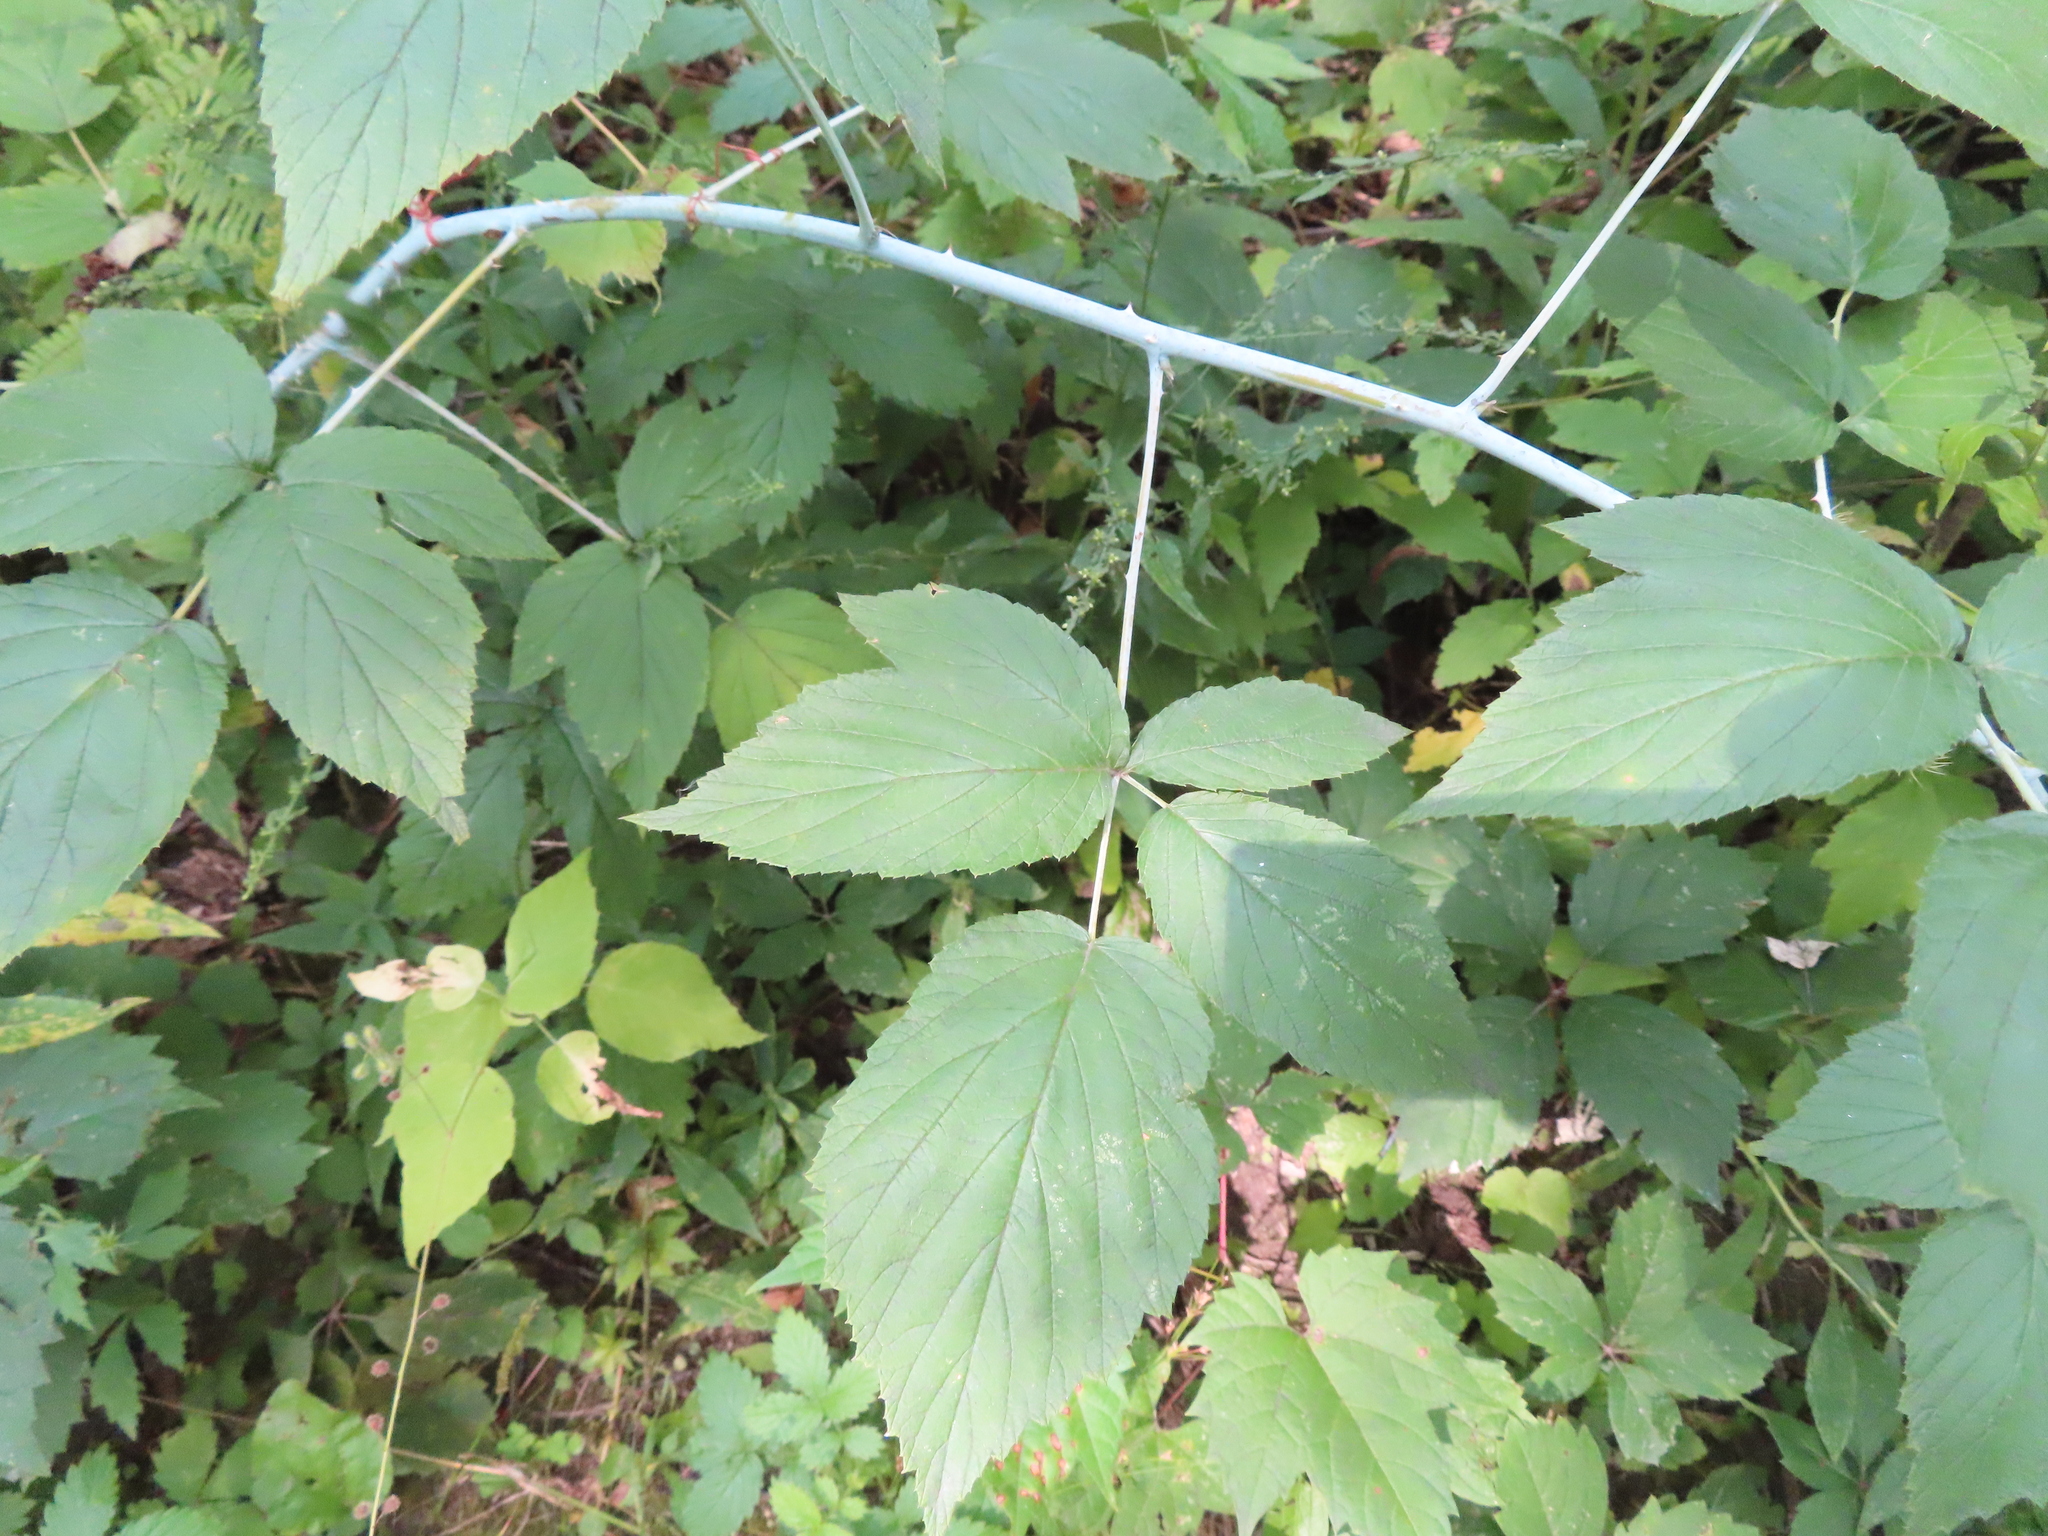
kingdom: Plantae
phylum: Tracheophyta
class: Magnoliopsida
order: Rosales
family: Rosaceae
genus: Rubus
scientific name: Rubus occidentalis
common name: Black raspberry
